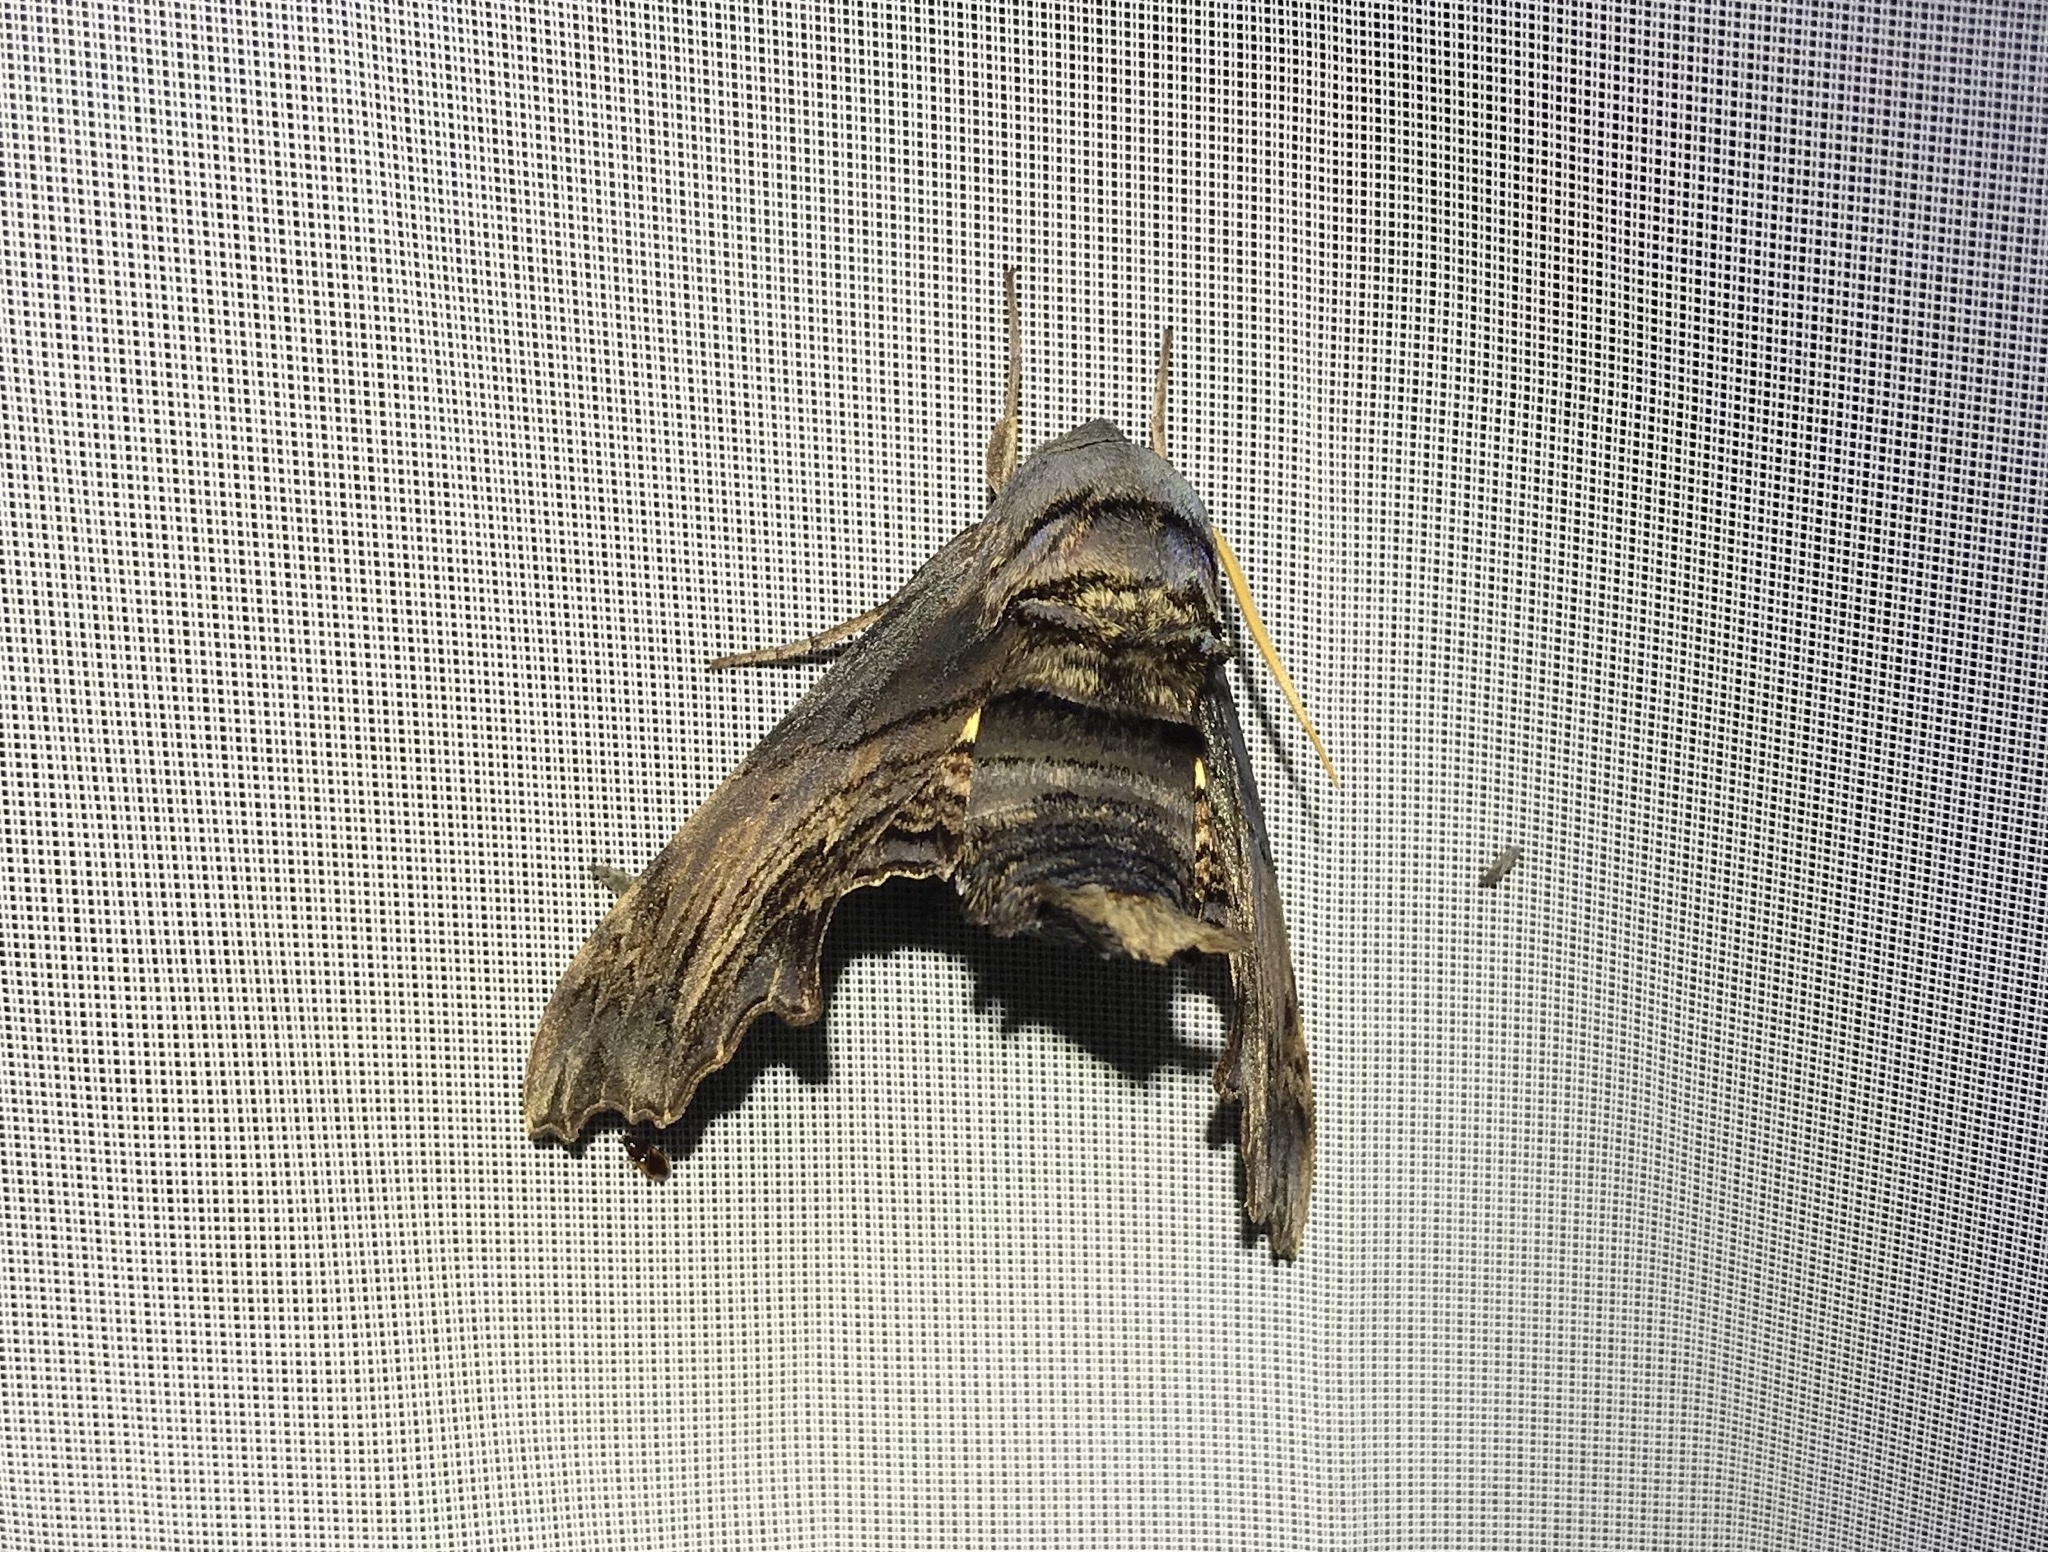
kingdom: Animalia
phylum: Arthropoda
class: Insecta
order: Lepidoptera
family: Sphingidae
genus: Sphecodina
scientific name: Sphecodina abbottii
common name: Abbott's sphinx
